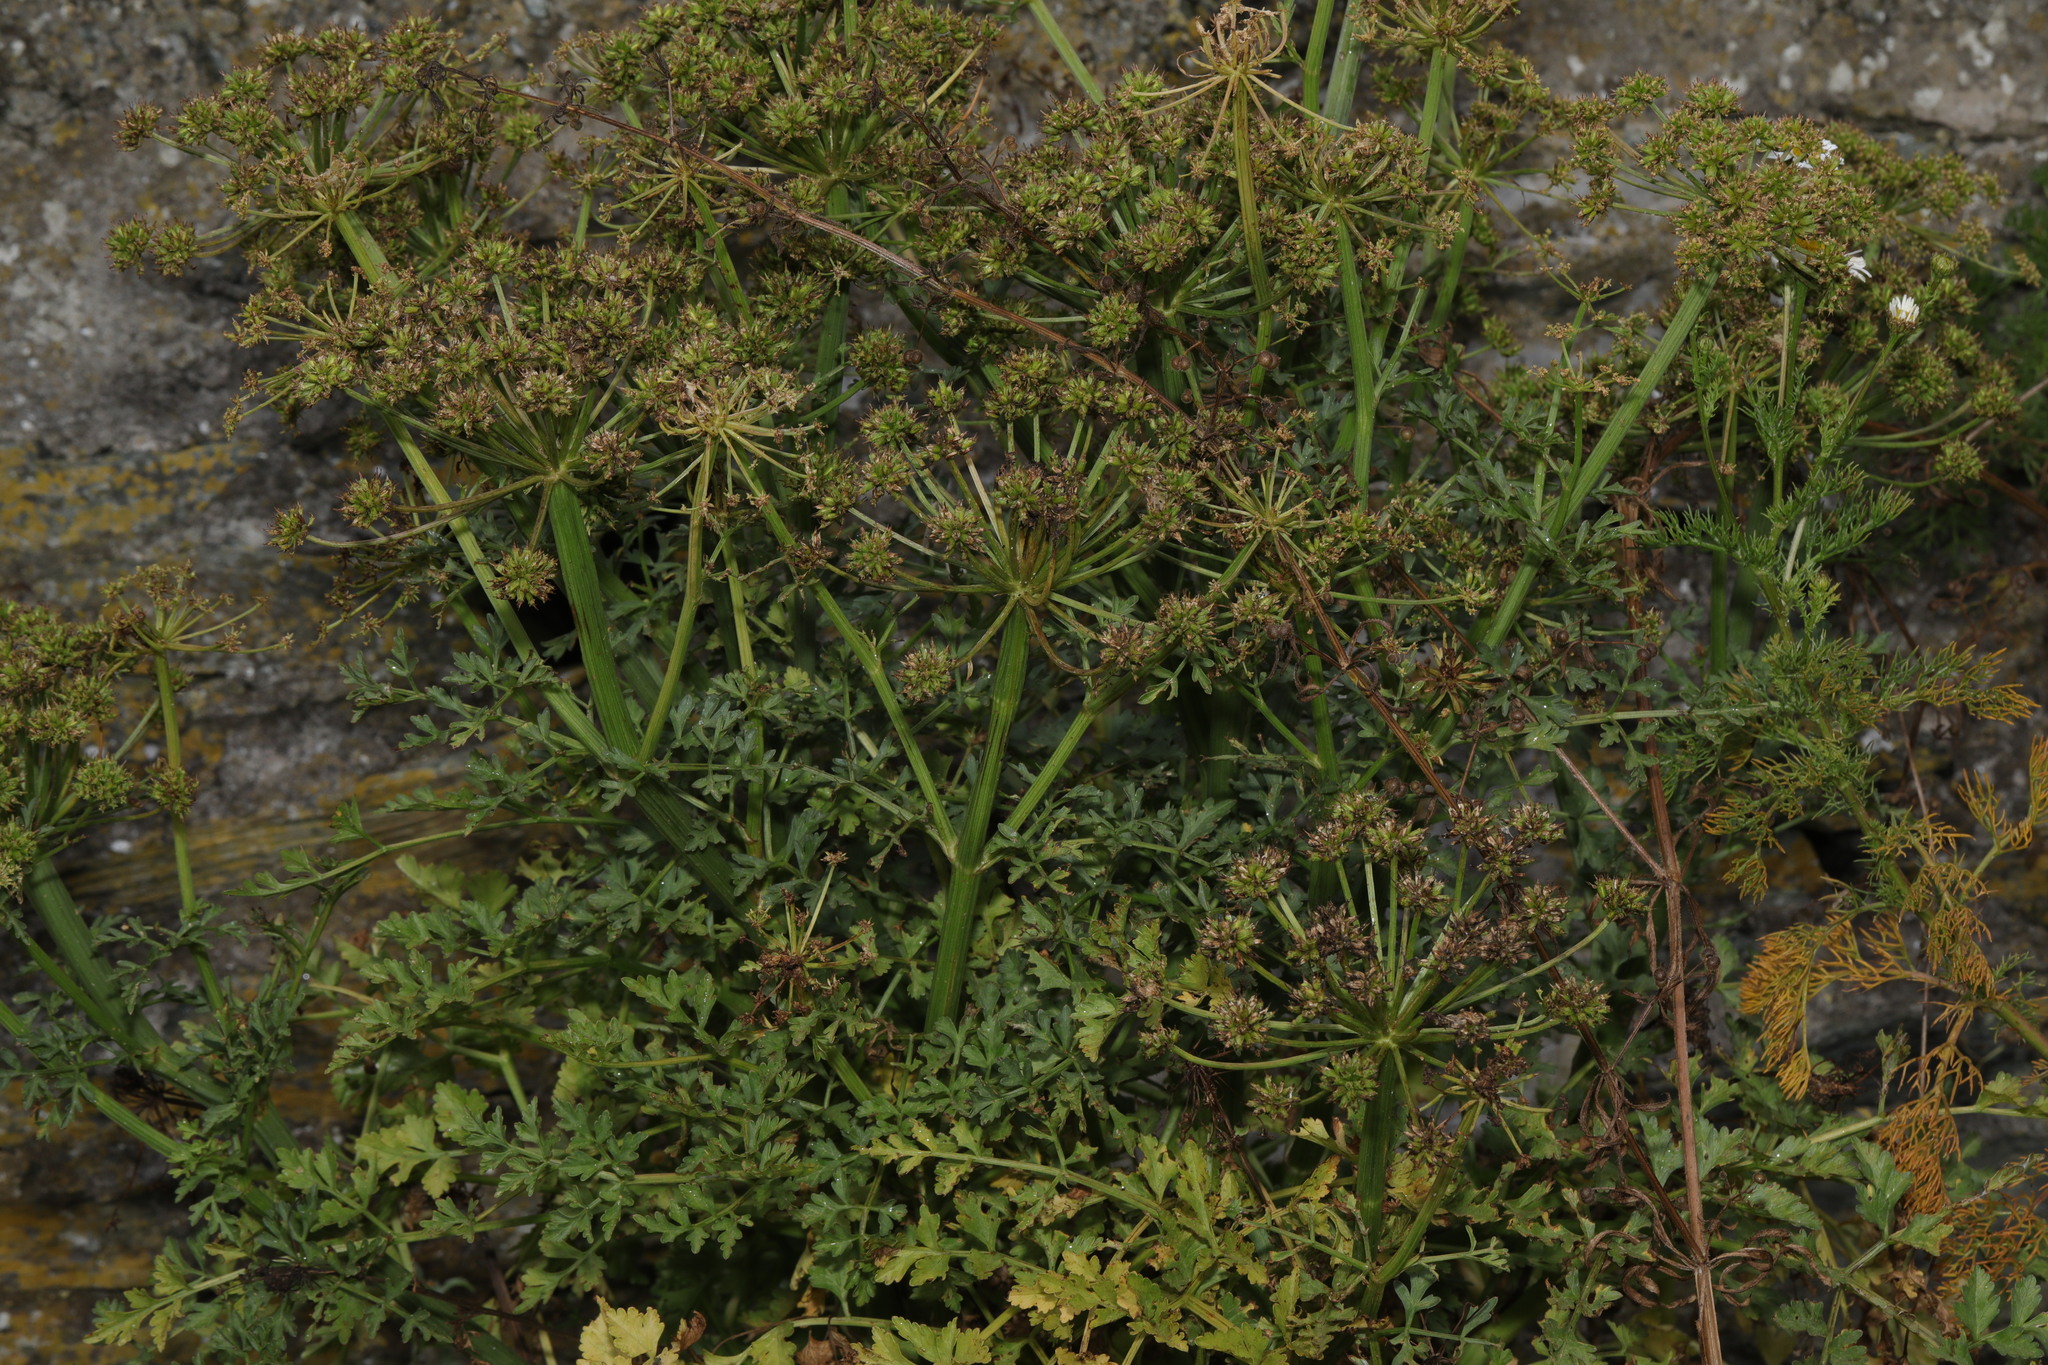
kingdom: Plantae
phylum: Tracheophyta
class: Magnoliopsida
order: Apiales
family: Apiaceae
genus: Oenanthe
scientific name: Oenanthe crocata
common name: Hemlock water-dropwort
